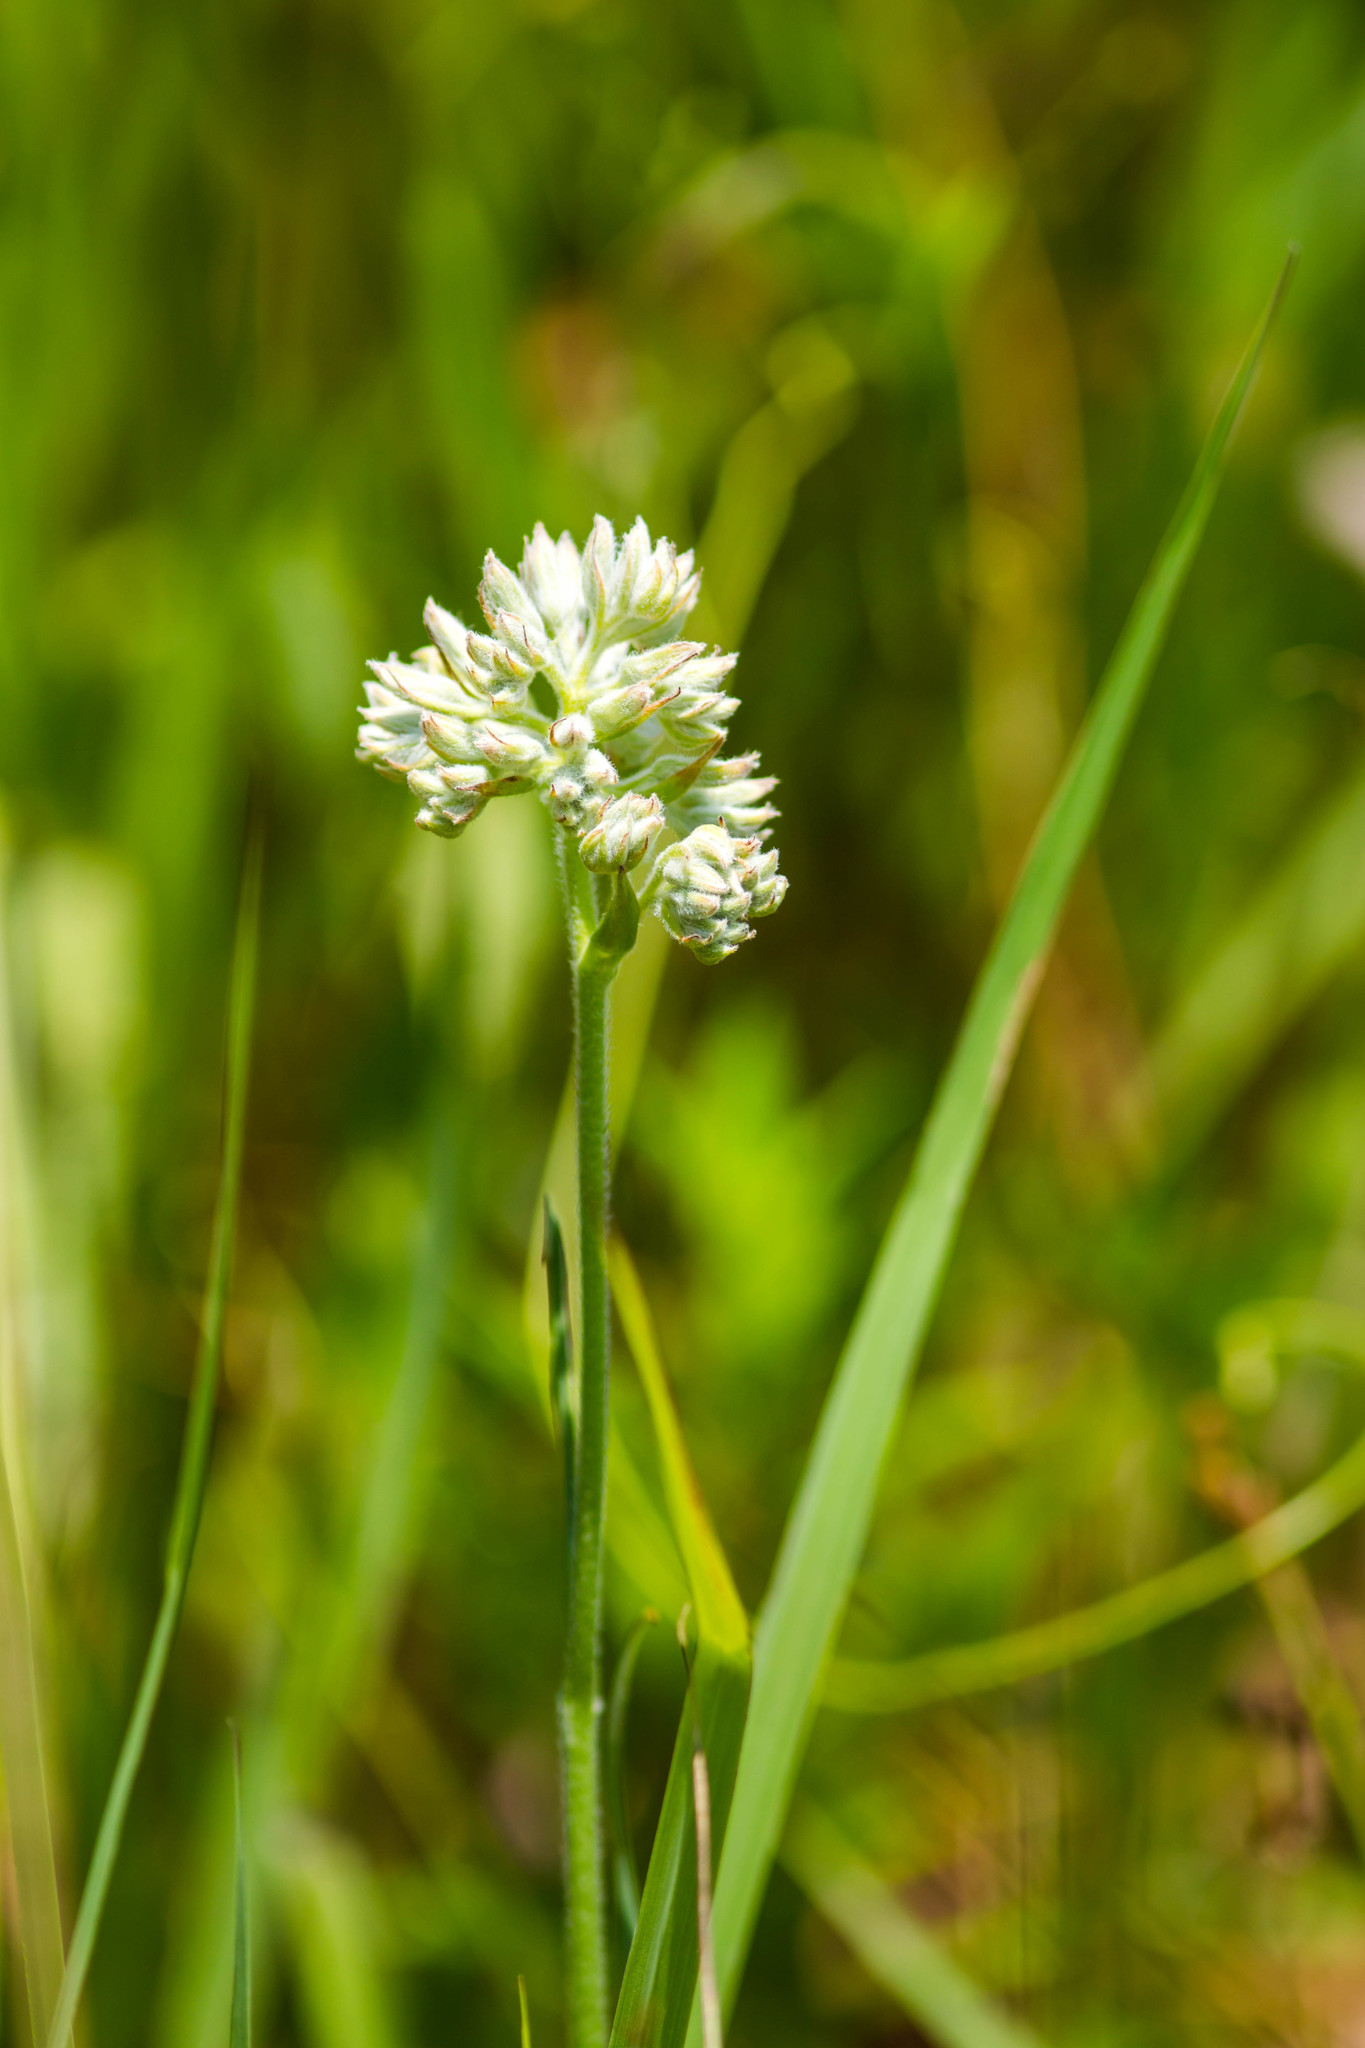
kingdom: Plantae
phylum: Tracheophyta
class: Liliopsida
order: Commelinales
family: Haemodoraceae
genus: Lachnanthes
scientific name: Lachnanthes caroliana
